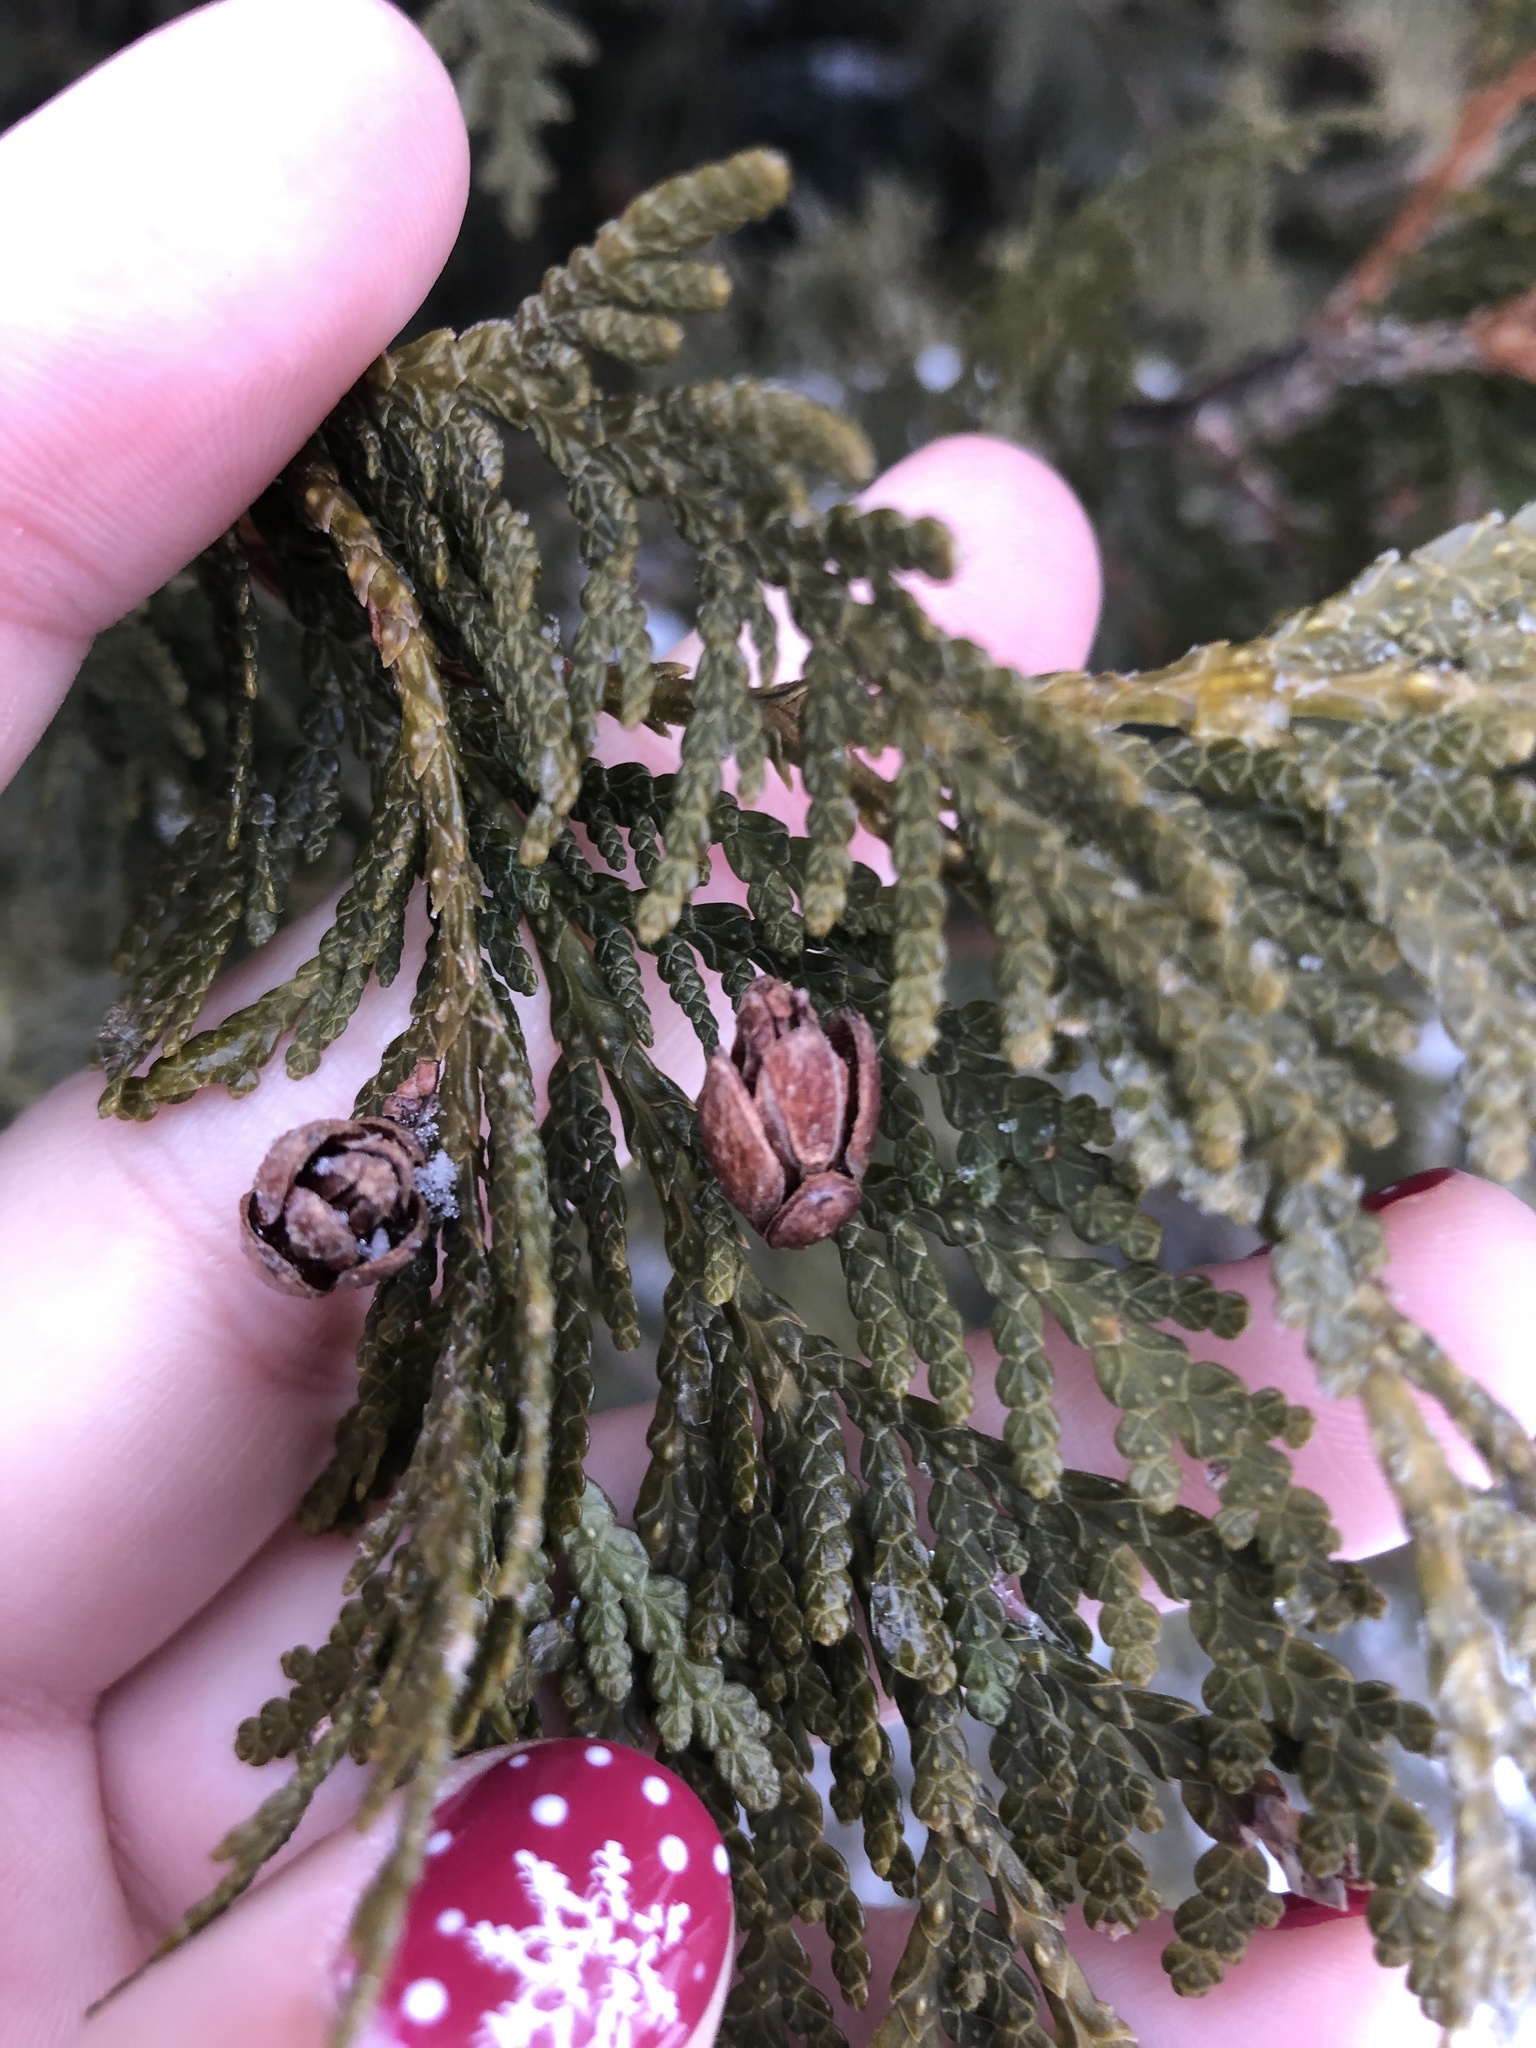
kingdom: Plantae
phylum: Tracheophyta
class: Pinopsida
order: Pinales
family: Cupressaceae
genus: Thuja
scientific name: Thuja occidentalis
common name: Northern white-cedar
